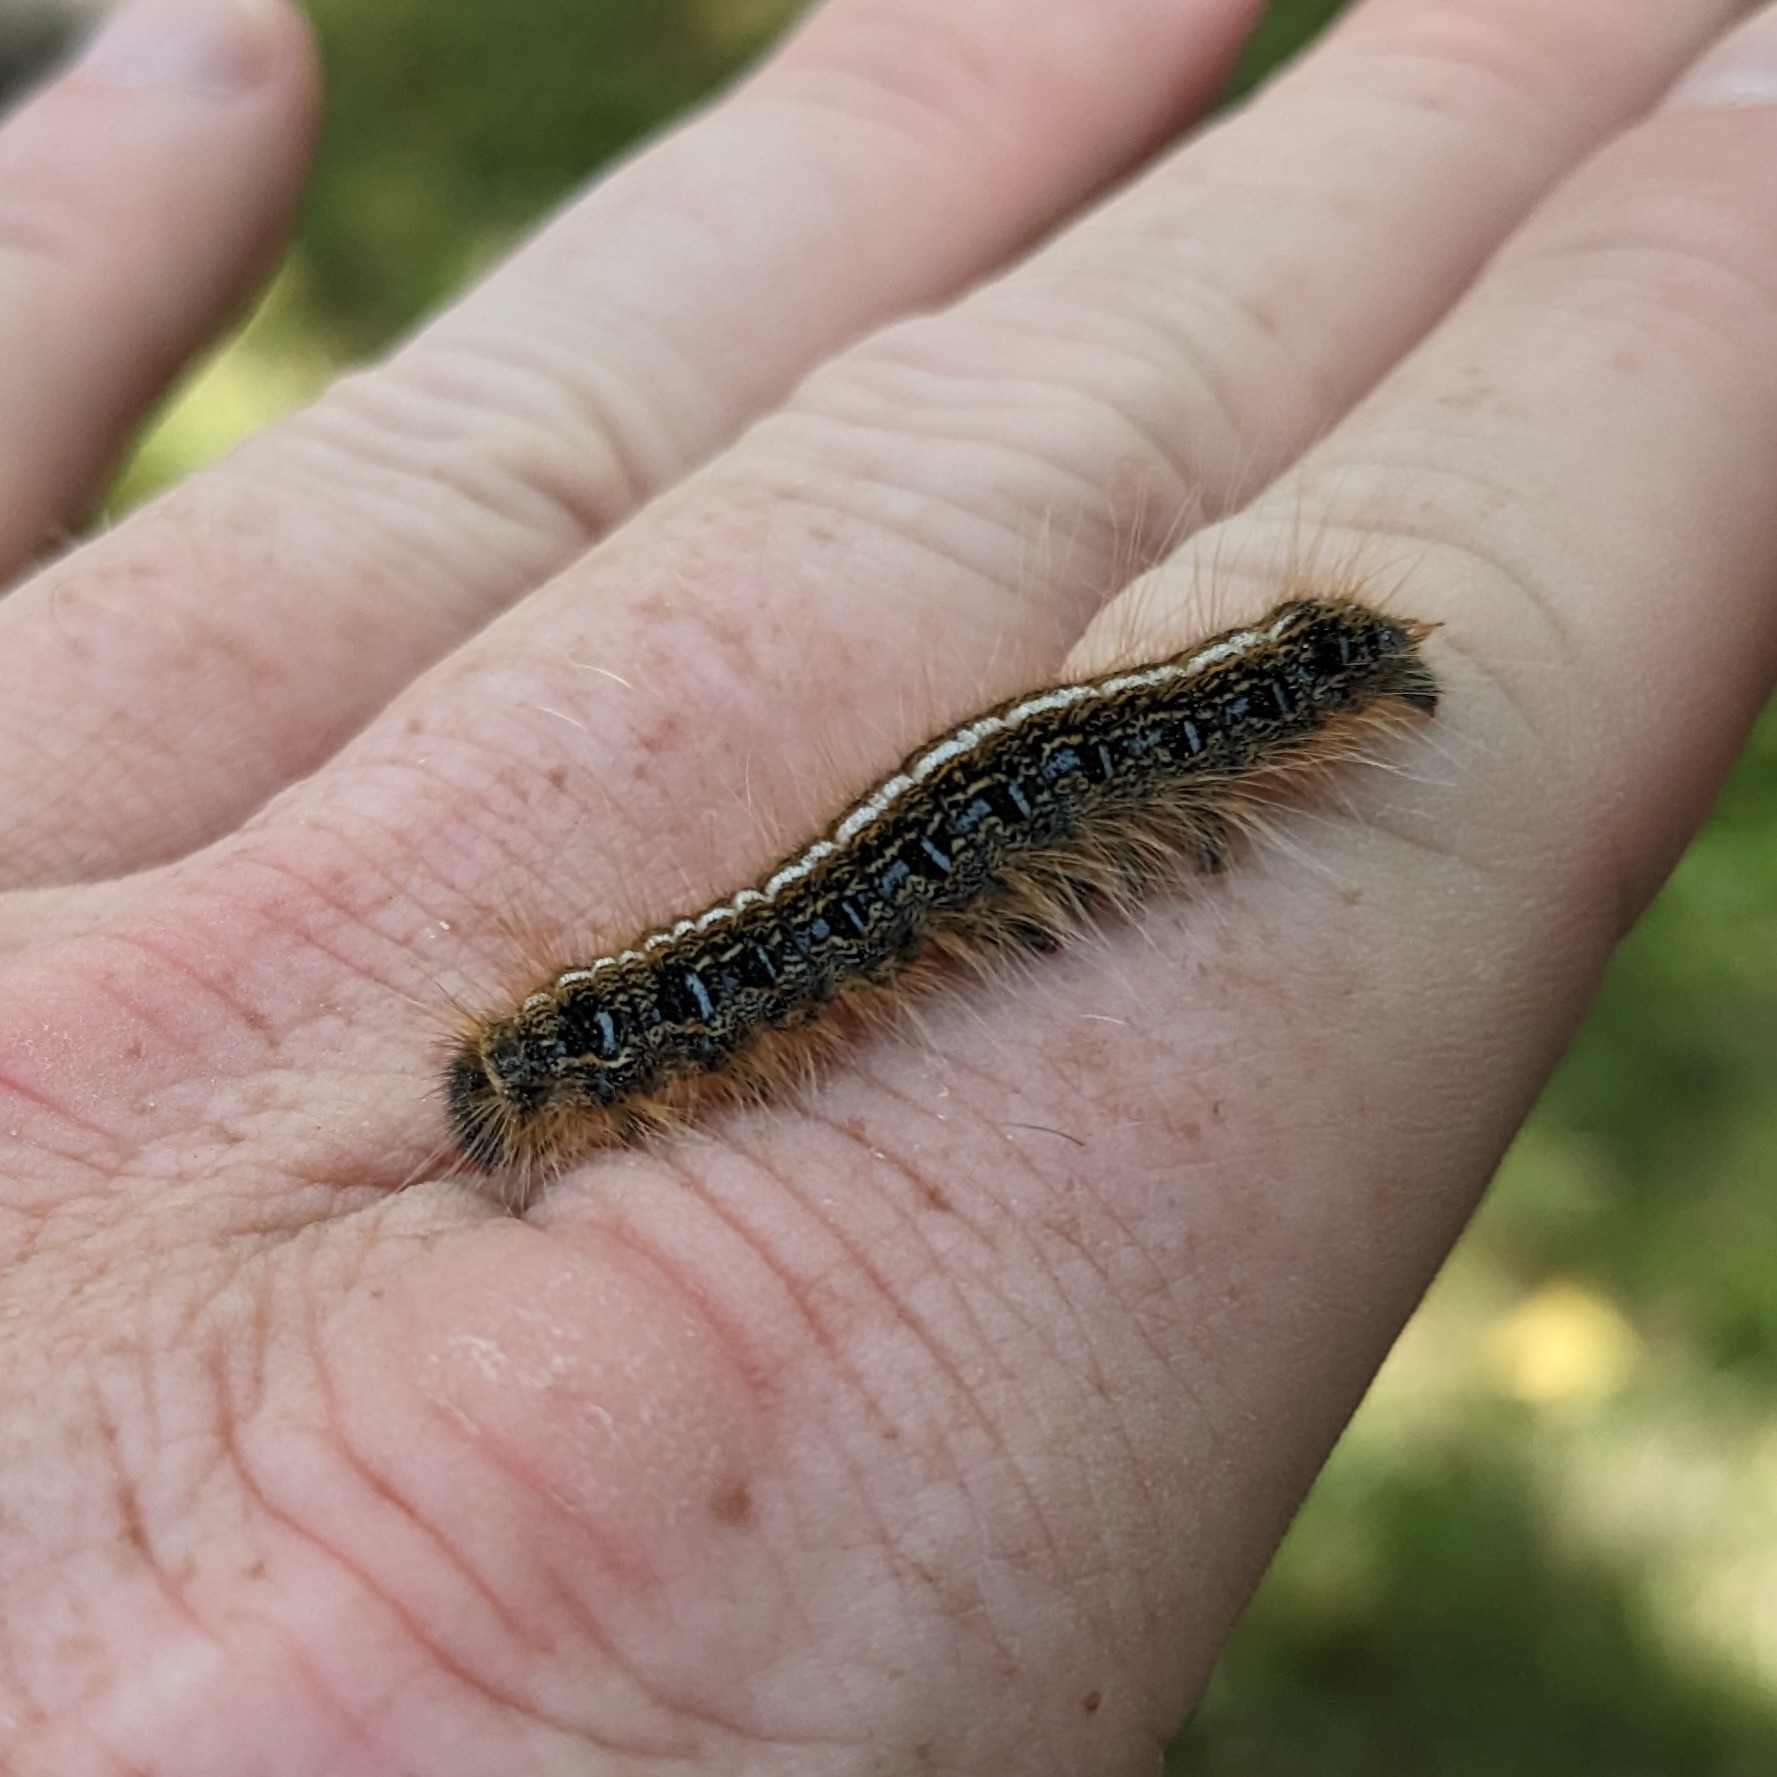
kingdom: Animalia
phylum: Arthropoda
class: Insecta
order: Lepidoptera
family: Lasiocampidae
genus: Malacosoma
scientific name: Malacosoma americana
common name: Eastern tent caterpillar moth
